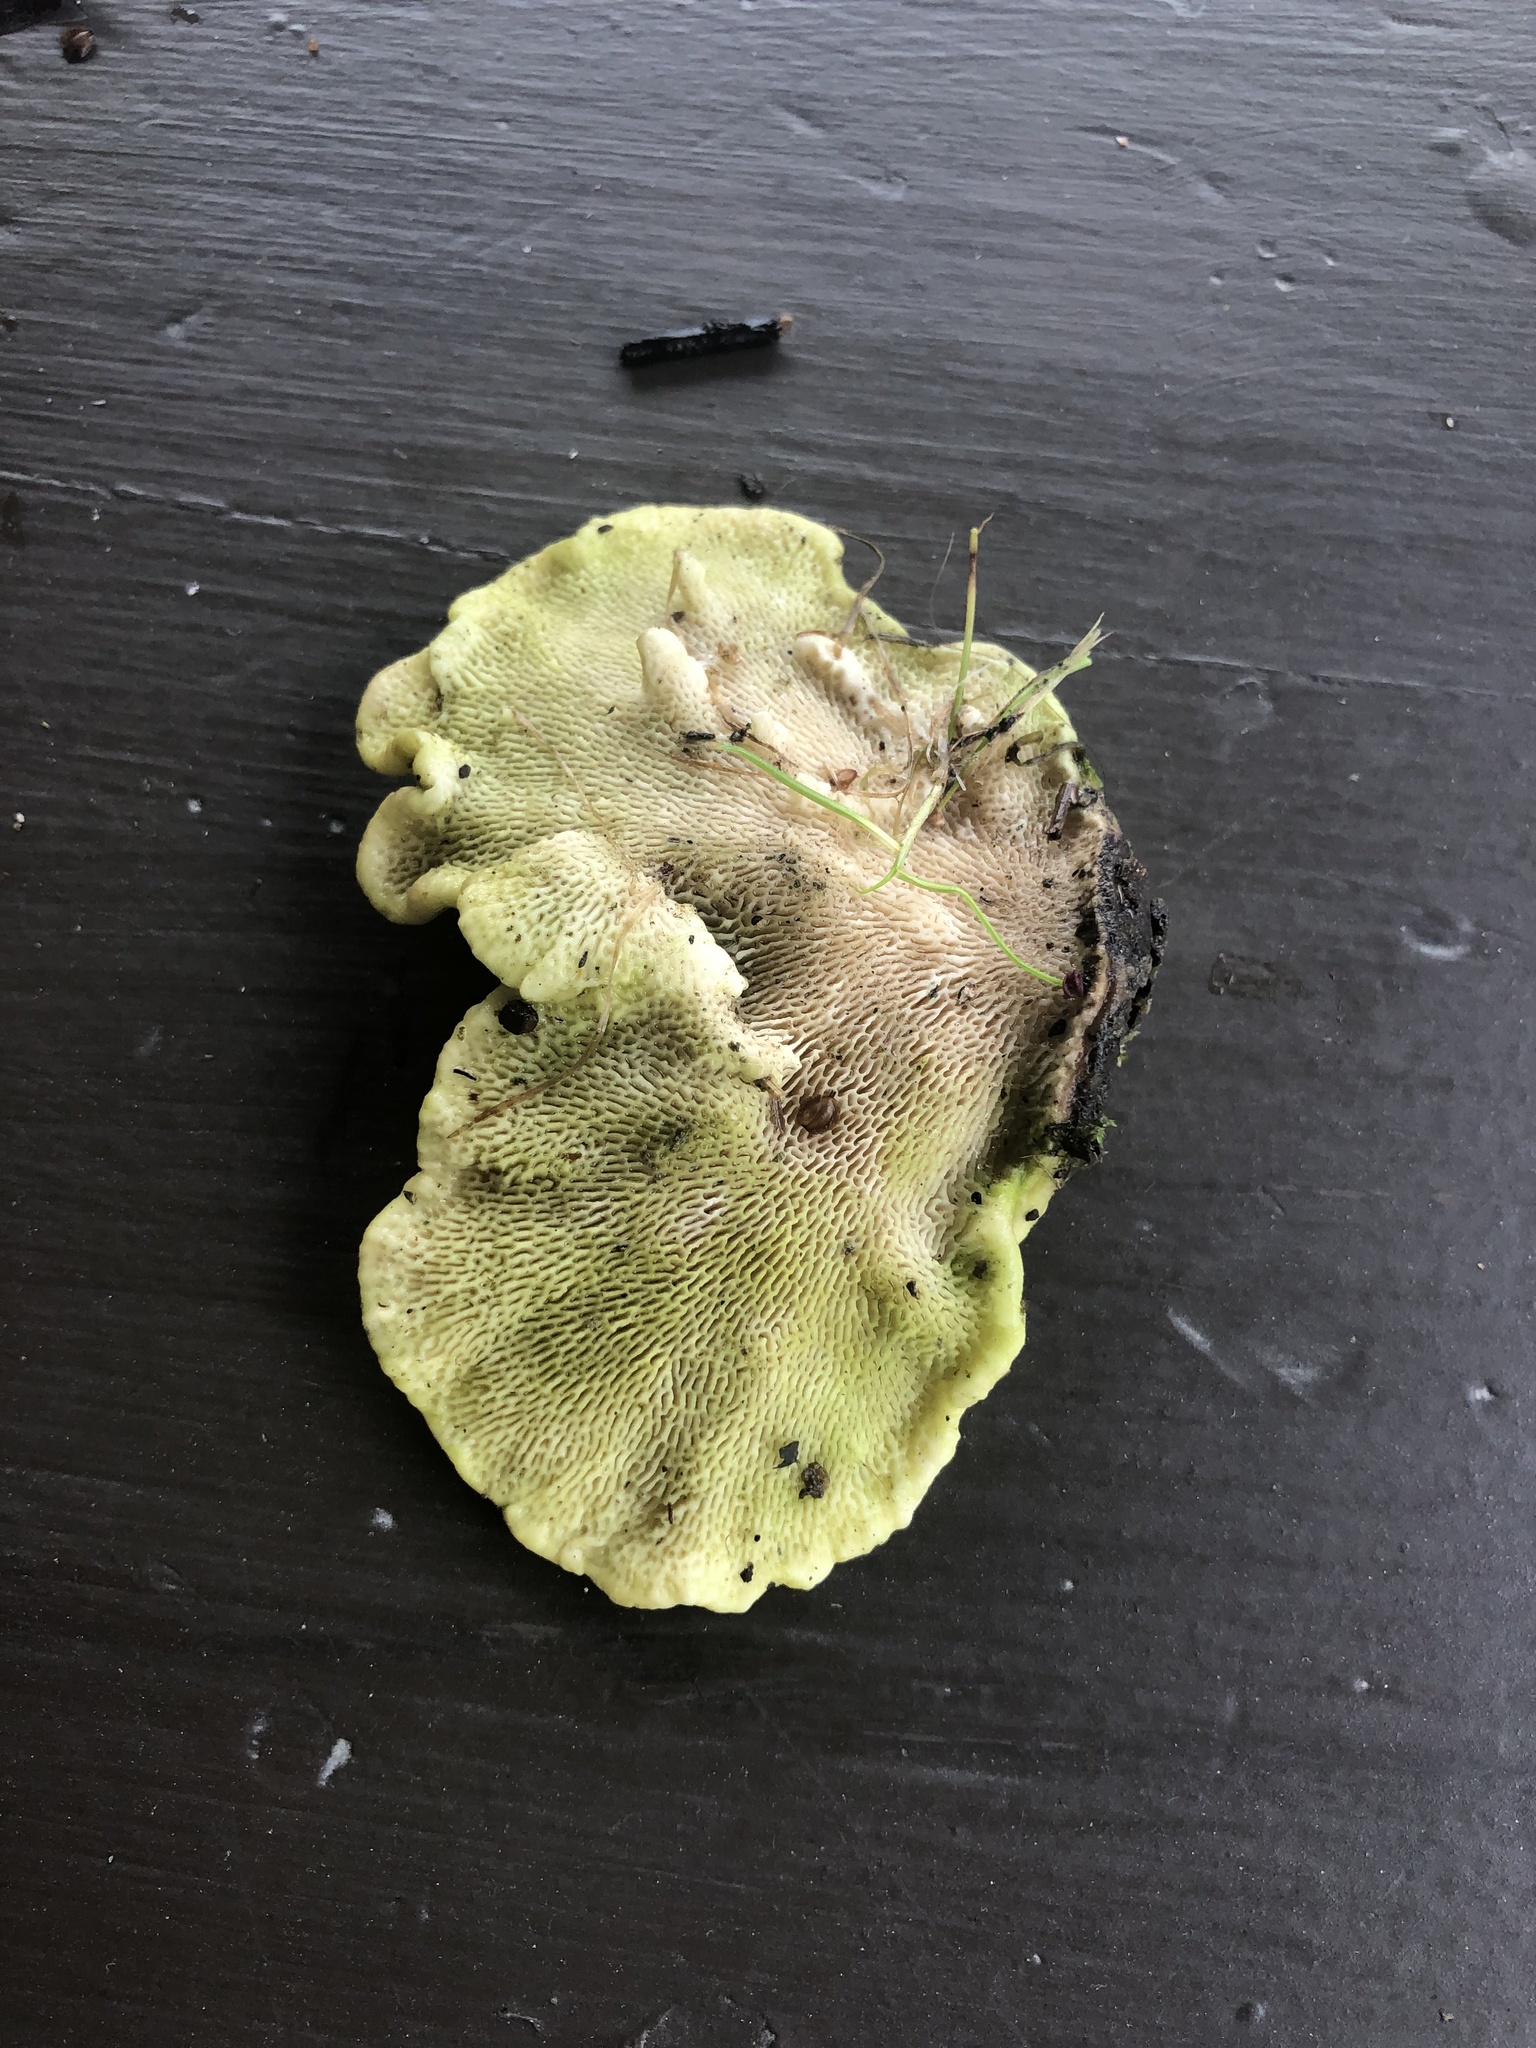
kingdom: Fungi
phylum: Basidiomycota
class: Agaricomycetes
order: Polyporales
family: Polyporaceae
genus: Trametes
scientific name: Trametes gibbosa
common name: Lumpy bracket
